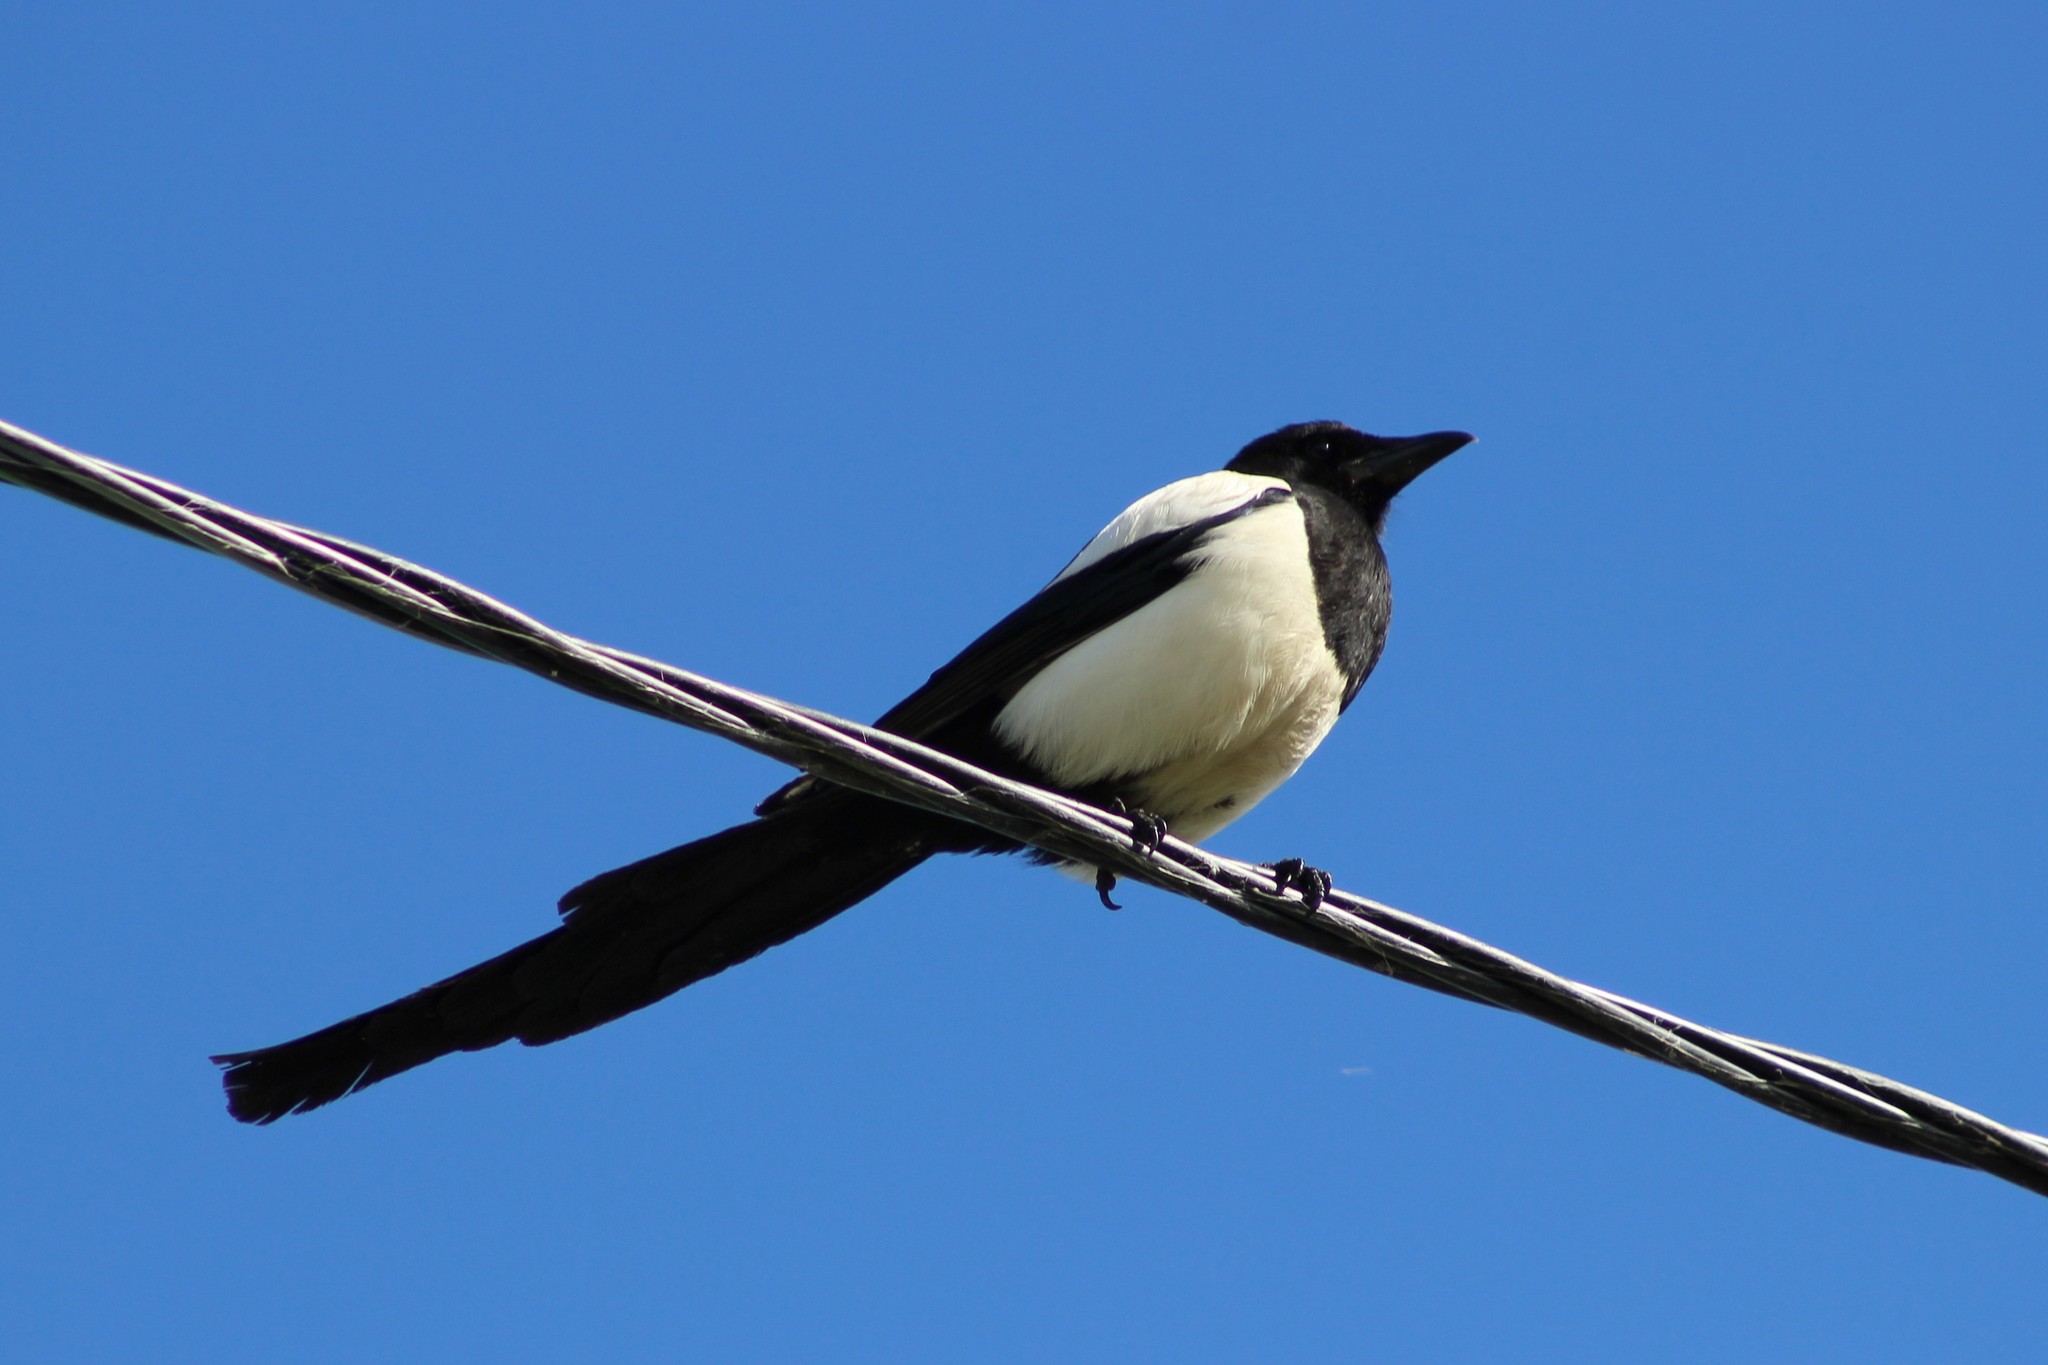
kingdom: Animalia
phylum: Chordata
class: Aves
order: Passeriformes
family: Corvidae
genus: Pica
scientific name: Pica pica
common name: Eurasian magpie
